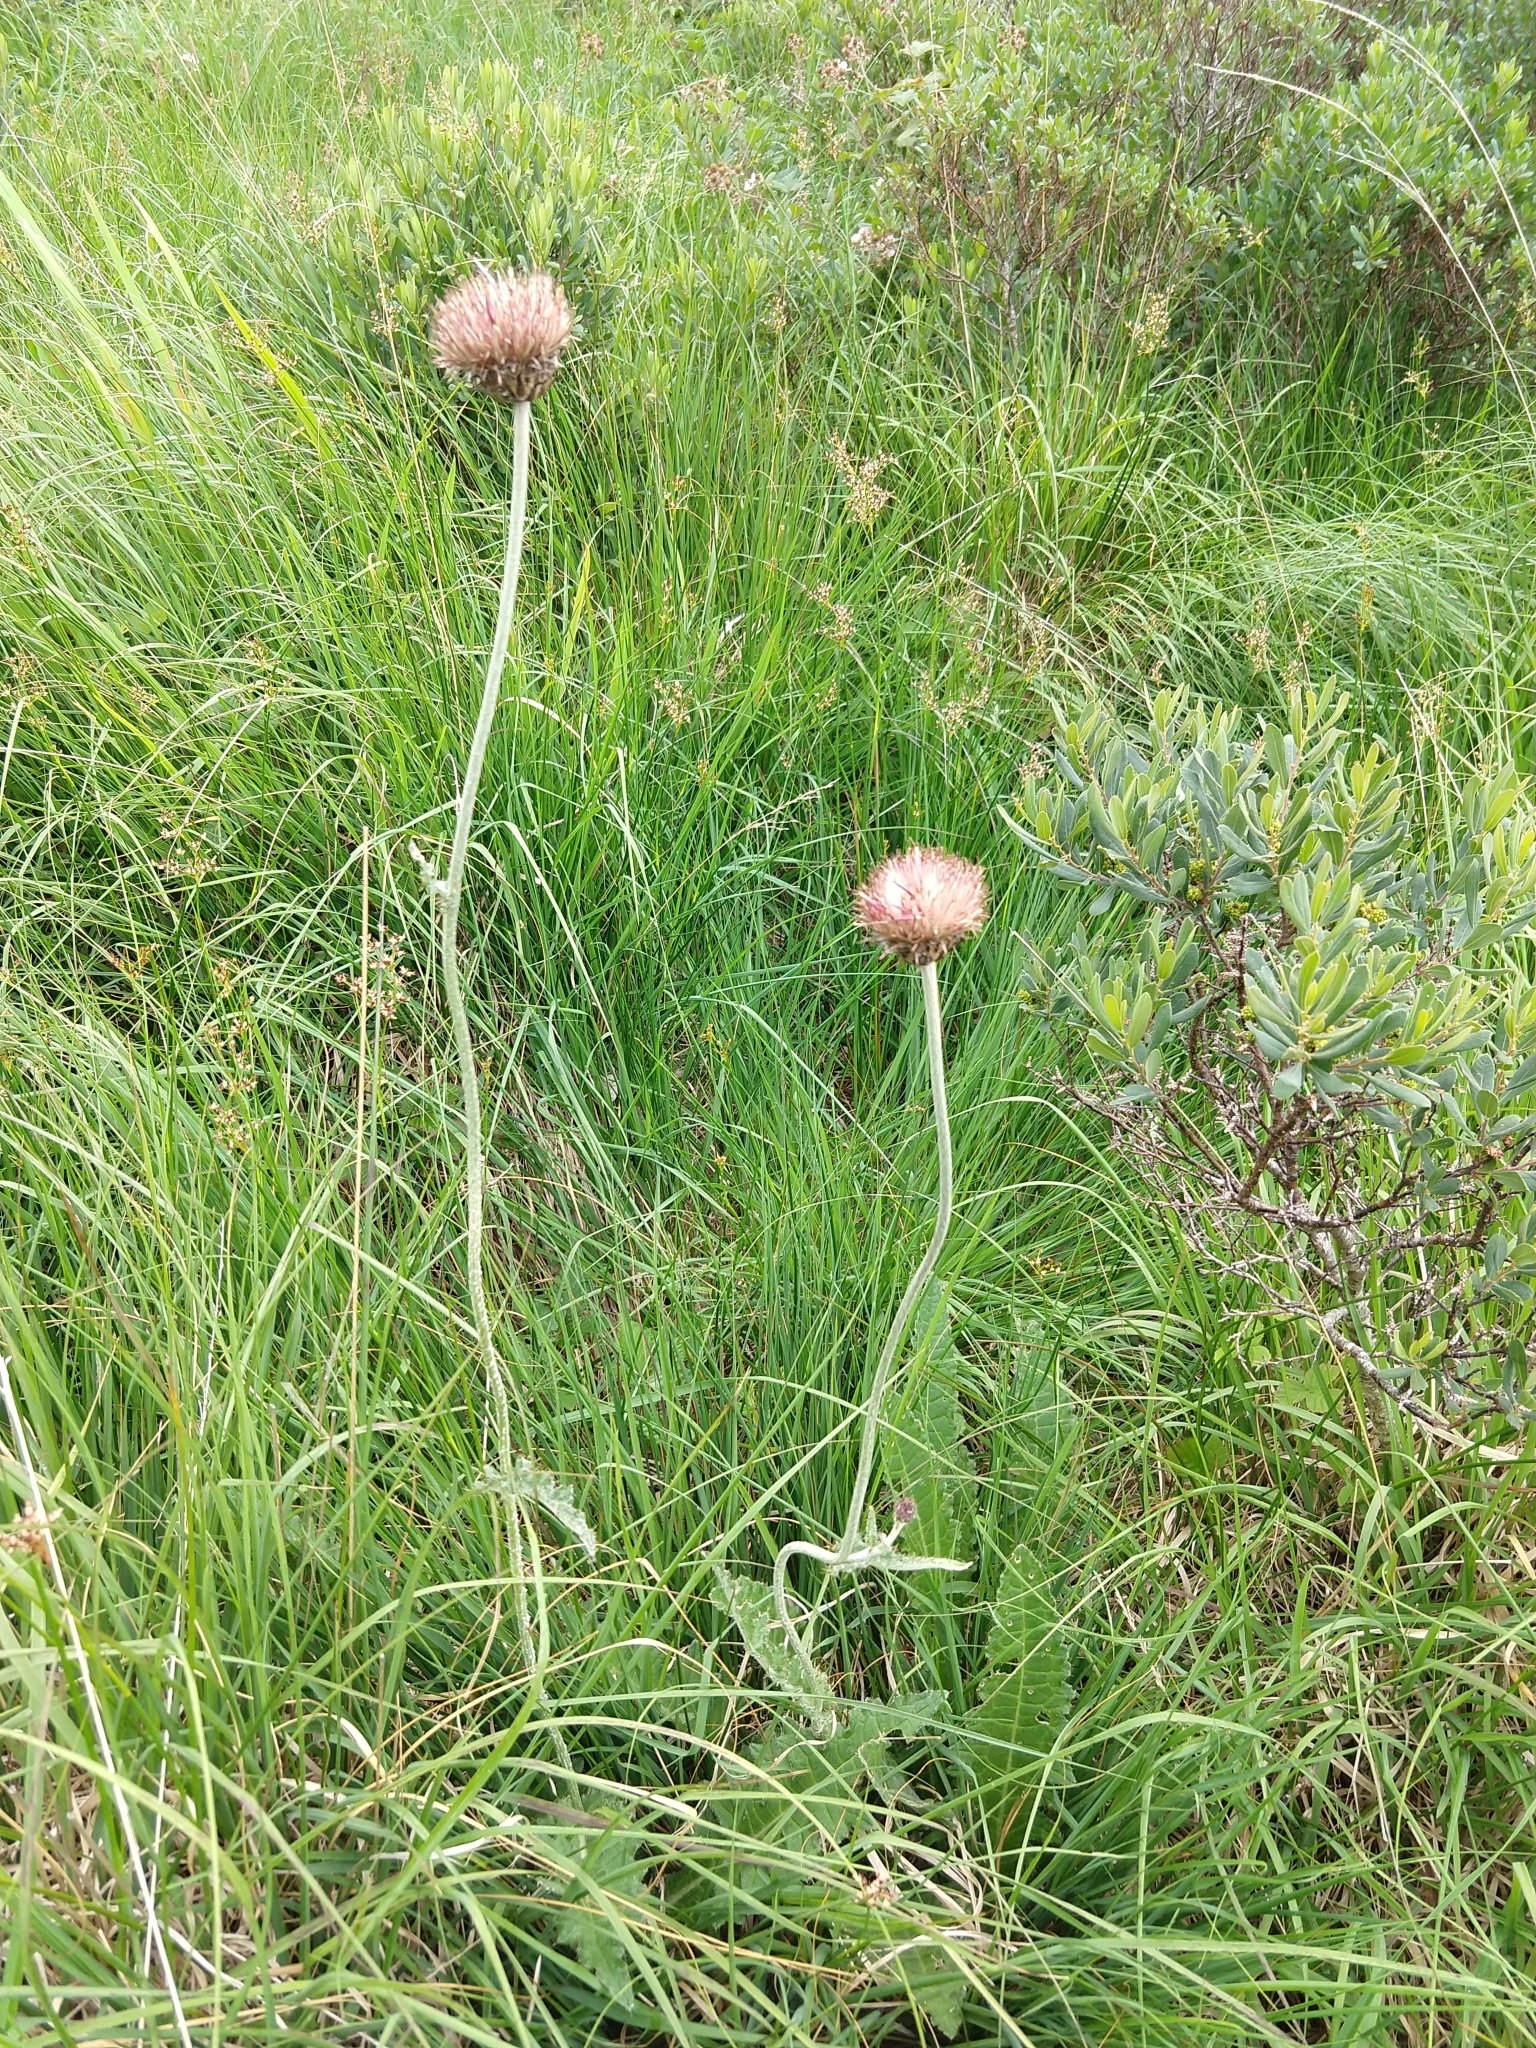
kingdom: Plantae
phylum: Tracheophyta
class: Magnoliopsida
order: Asterales
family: Asteraceae
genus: Cirsium
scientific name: Cirsium dissectum
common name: Meadow thistle
